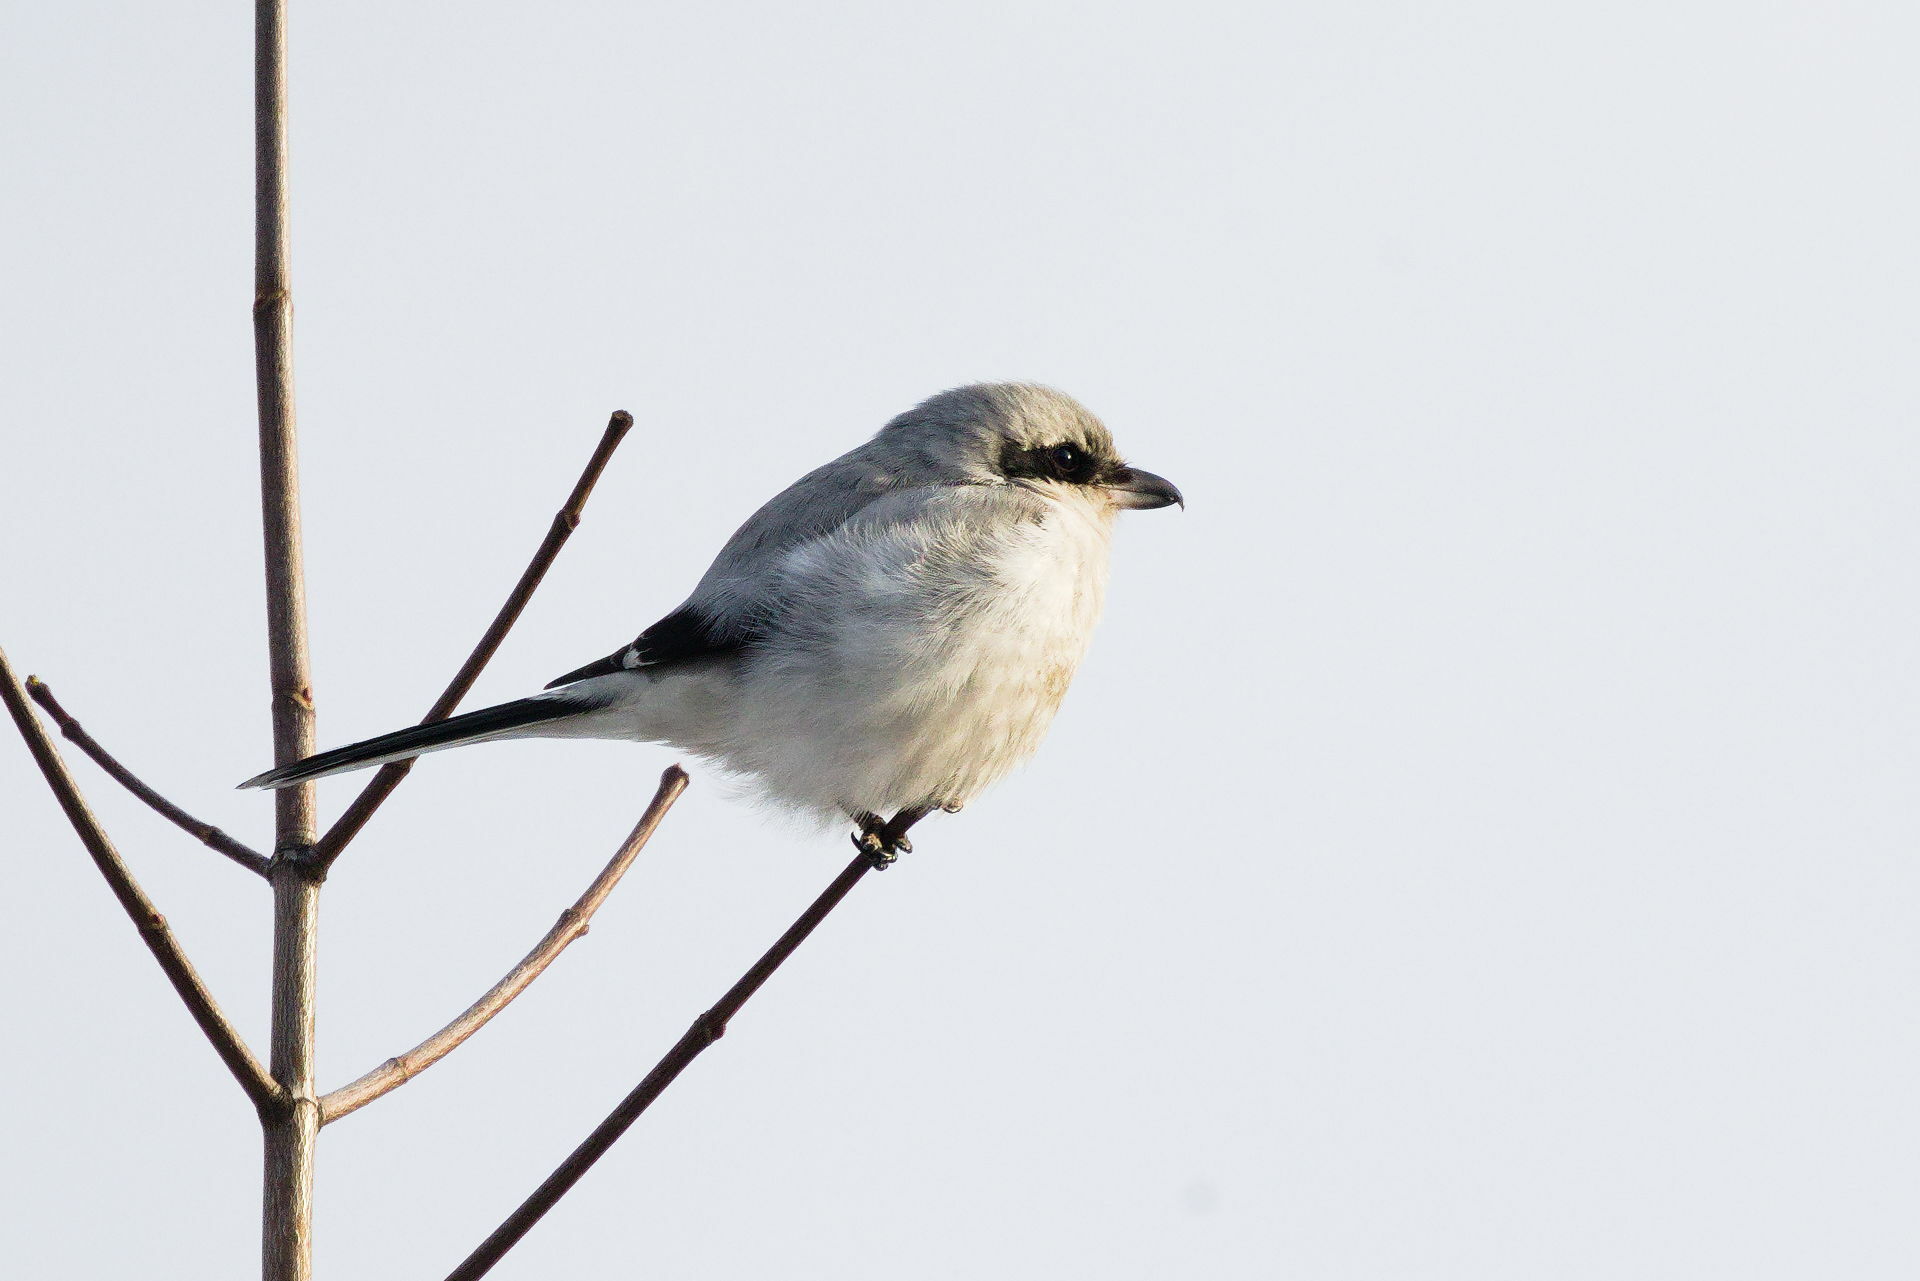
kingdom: Animalia
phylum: Chordata
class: Aves
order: Passeriformes
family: Laniidae
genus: Lanius
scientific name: Lanius excubitor
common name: Great grey shrike
